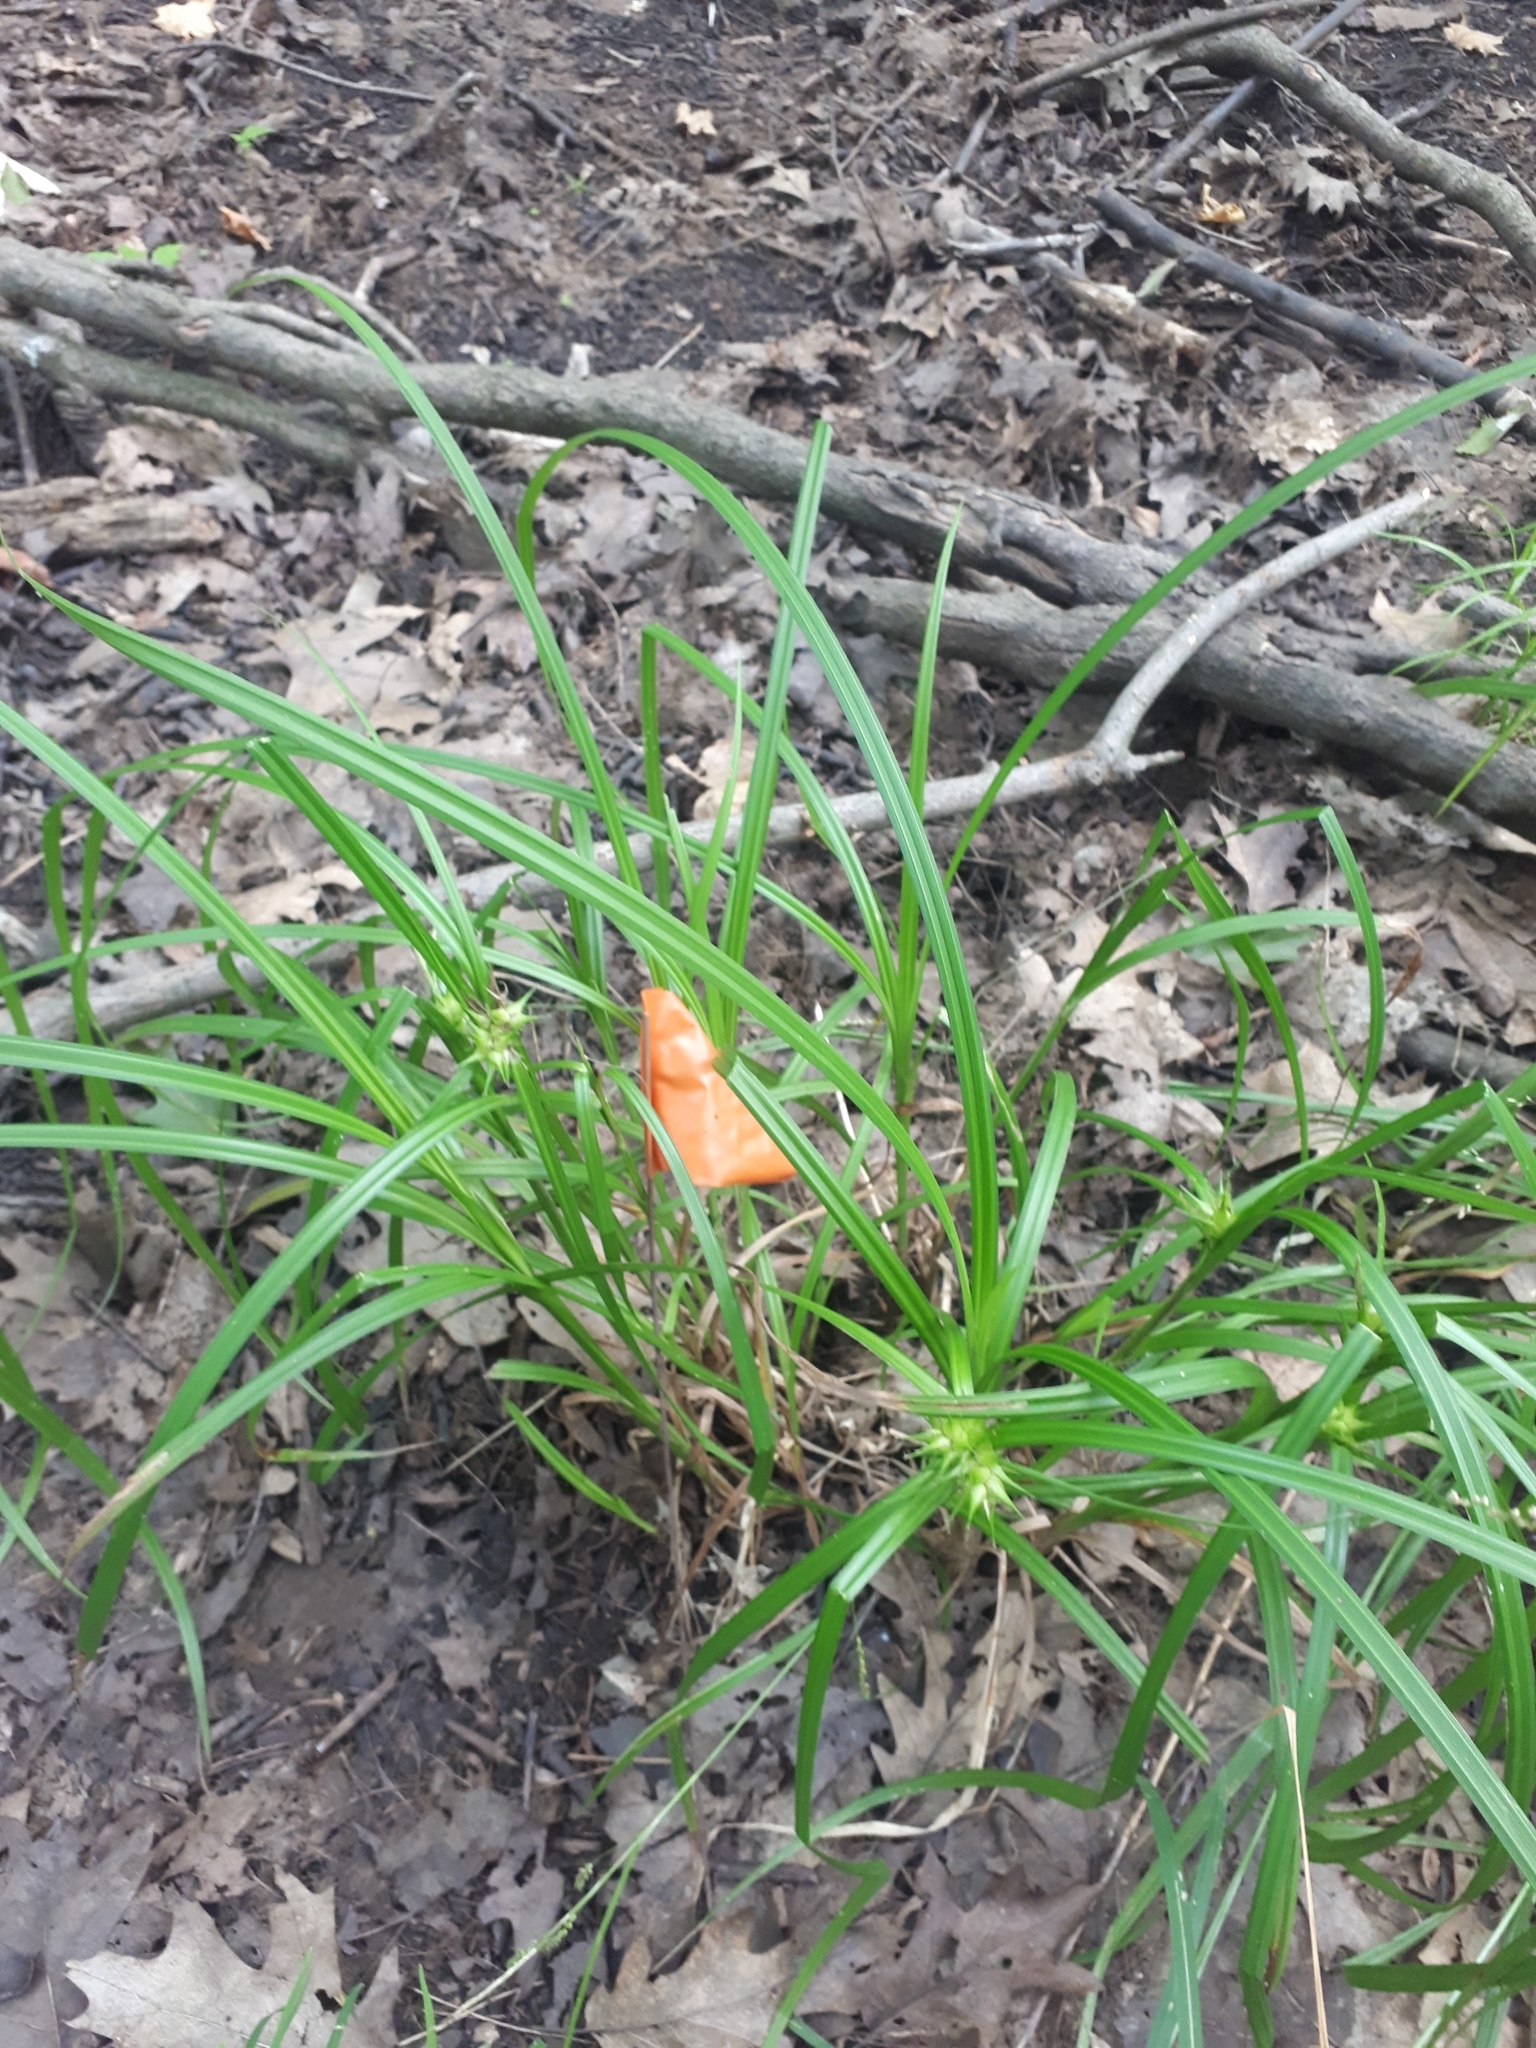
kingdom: Plantae
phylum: Tracheophyta
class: Liliopsida
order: Poales
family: Cyperaceae
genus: Carex
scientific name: Carex lupulina
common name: Hop sedge
